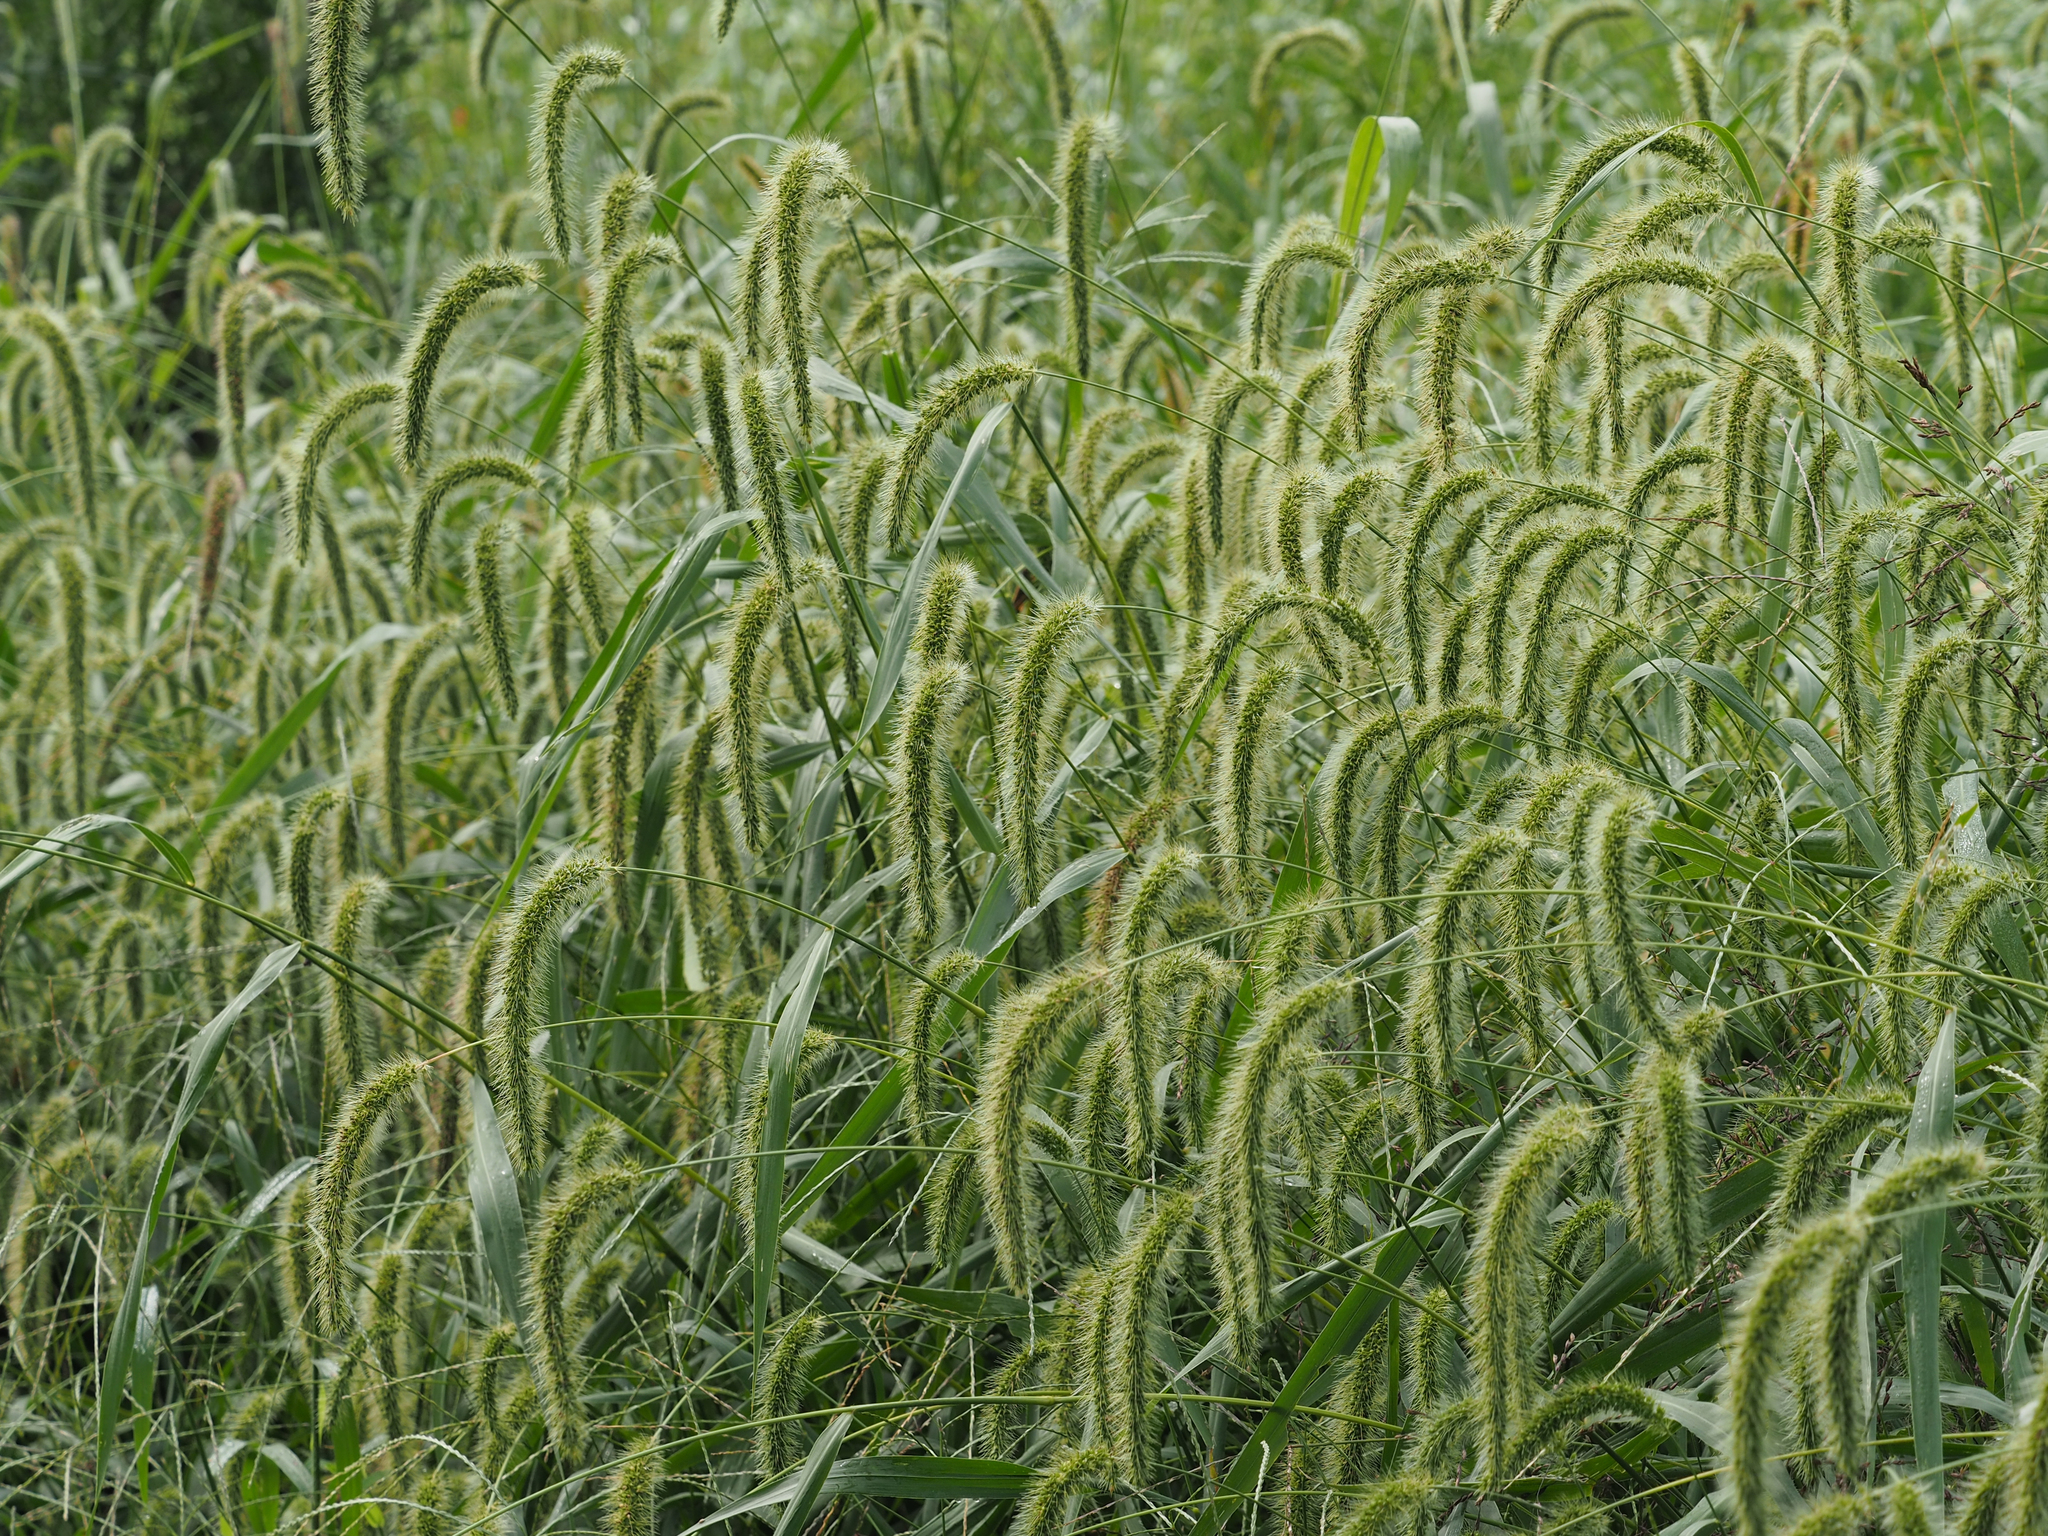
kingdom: Plantae
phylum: Tracheophyta
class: Liliopsida
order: Poales
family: Poaceae
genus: Setaria
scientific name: Setaria faberi
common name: Nodding bristle-grass
